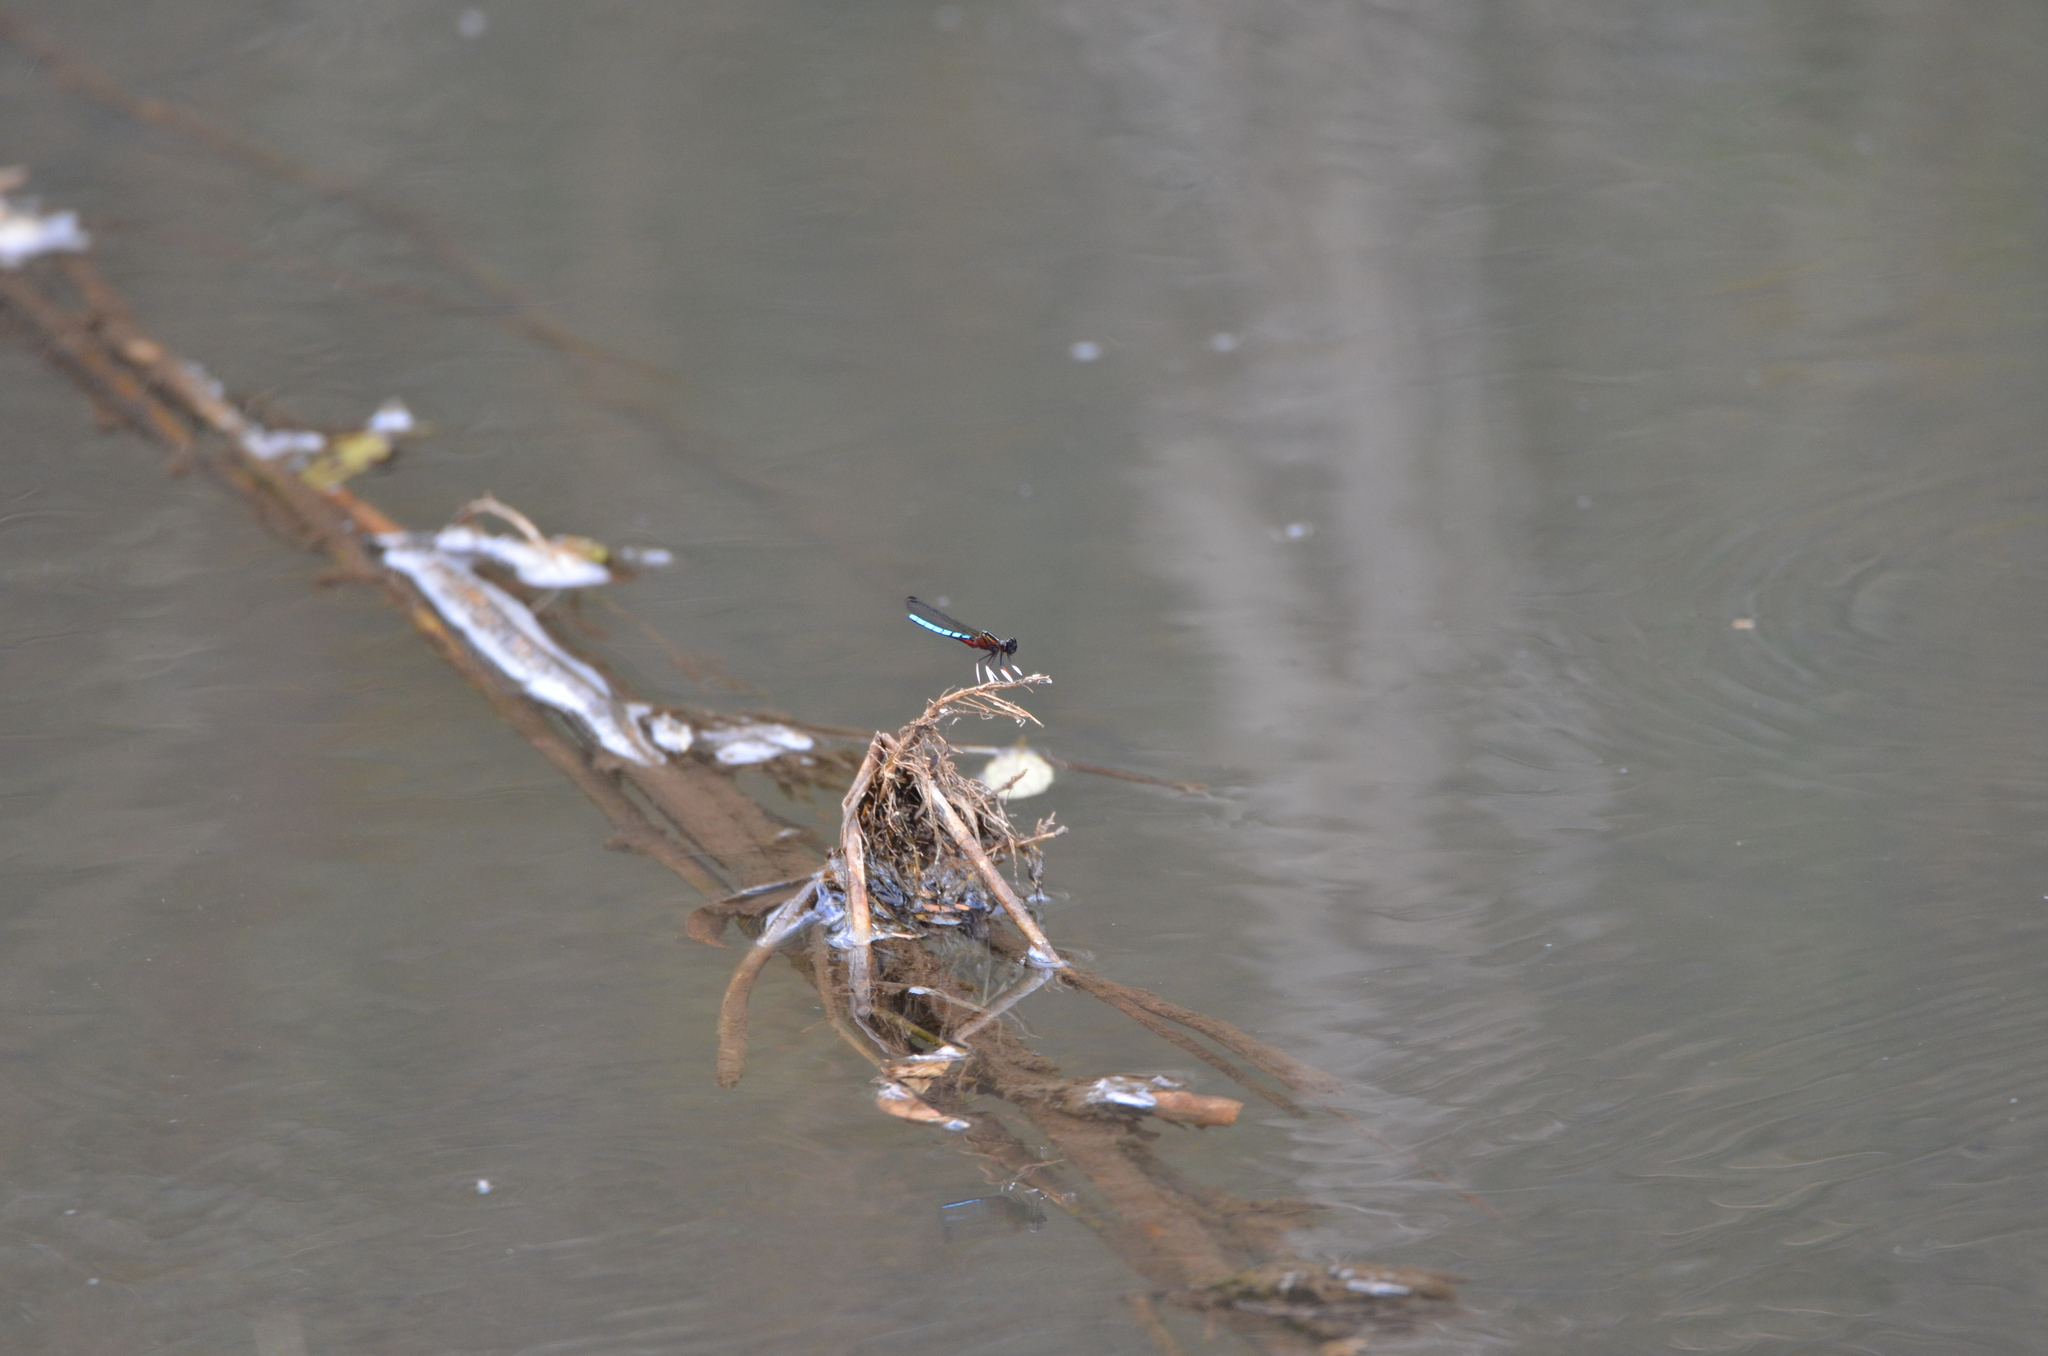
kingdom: Animalia
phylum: Arthropoda
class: Insecta
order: Odonata
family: Chlorocyphidae
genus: Platycypha
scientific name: Platycypha caligata
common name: Dancing jewel
